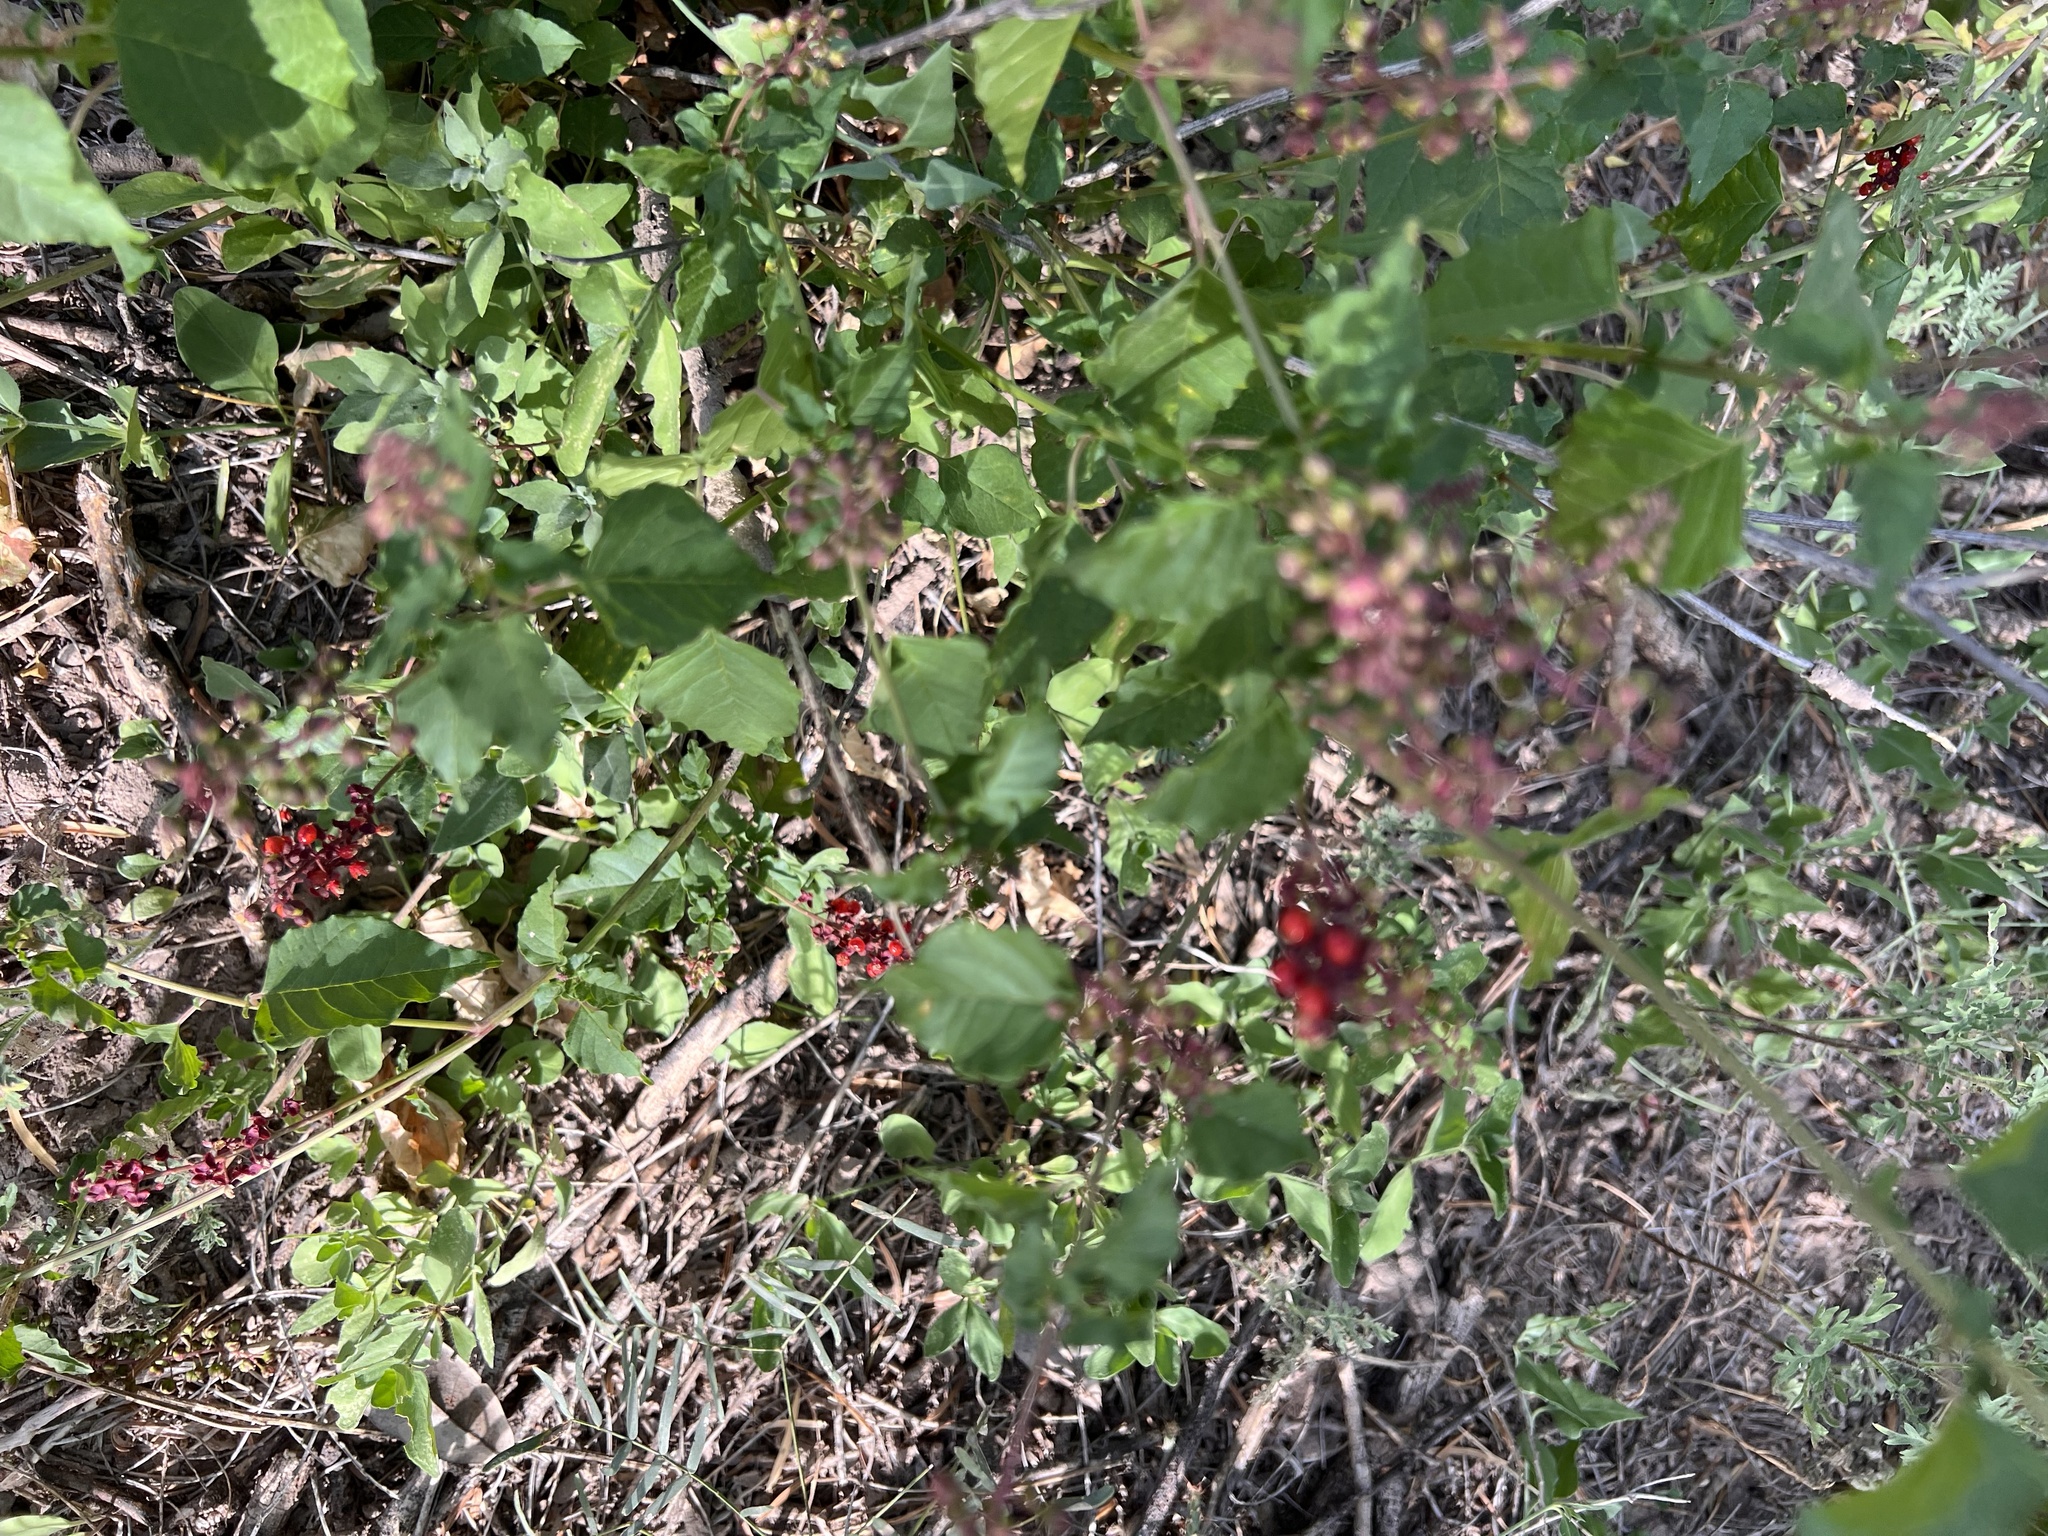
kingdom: Plantae
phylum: Tracheophyta
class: Magnoliopsida
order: Caryophyllales
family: Phytolaccaceae
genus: Rivina
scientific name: Rivina humilis
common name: Rougeplant
